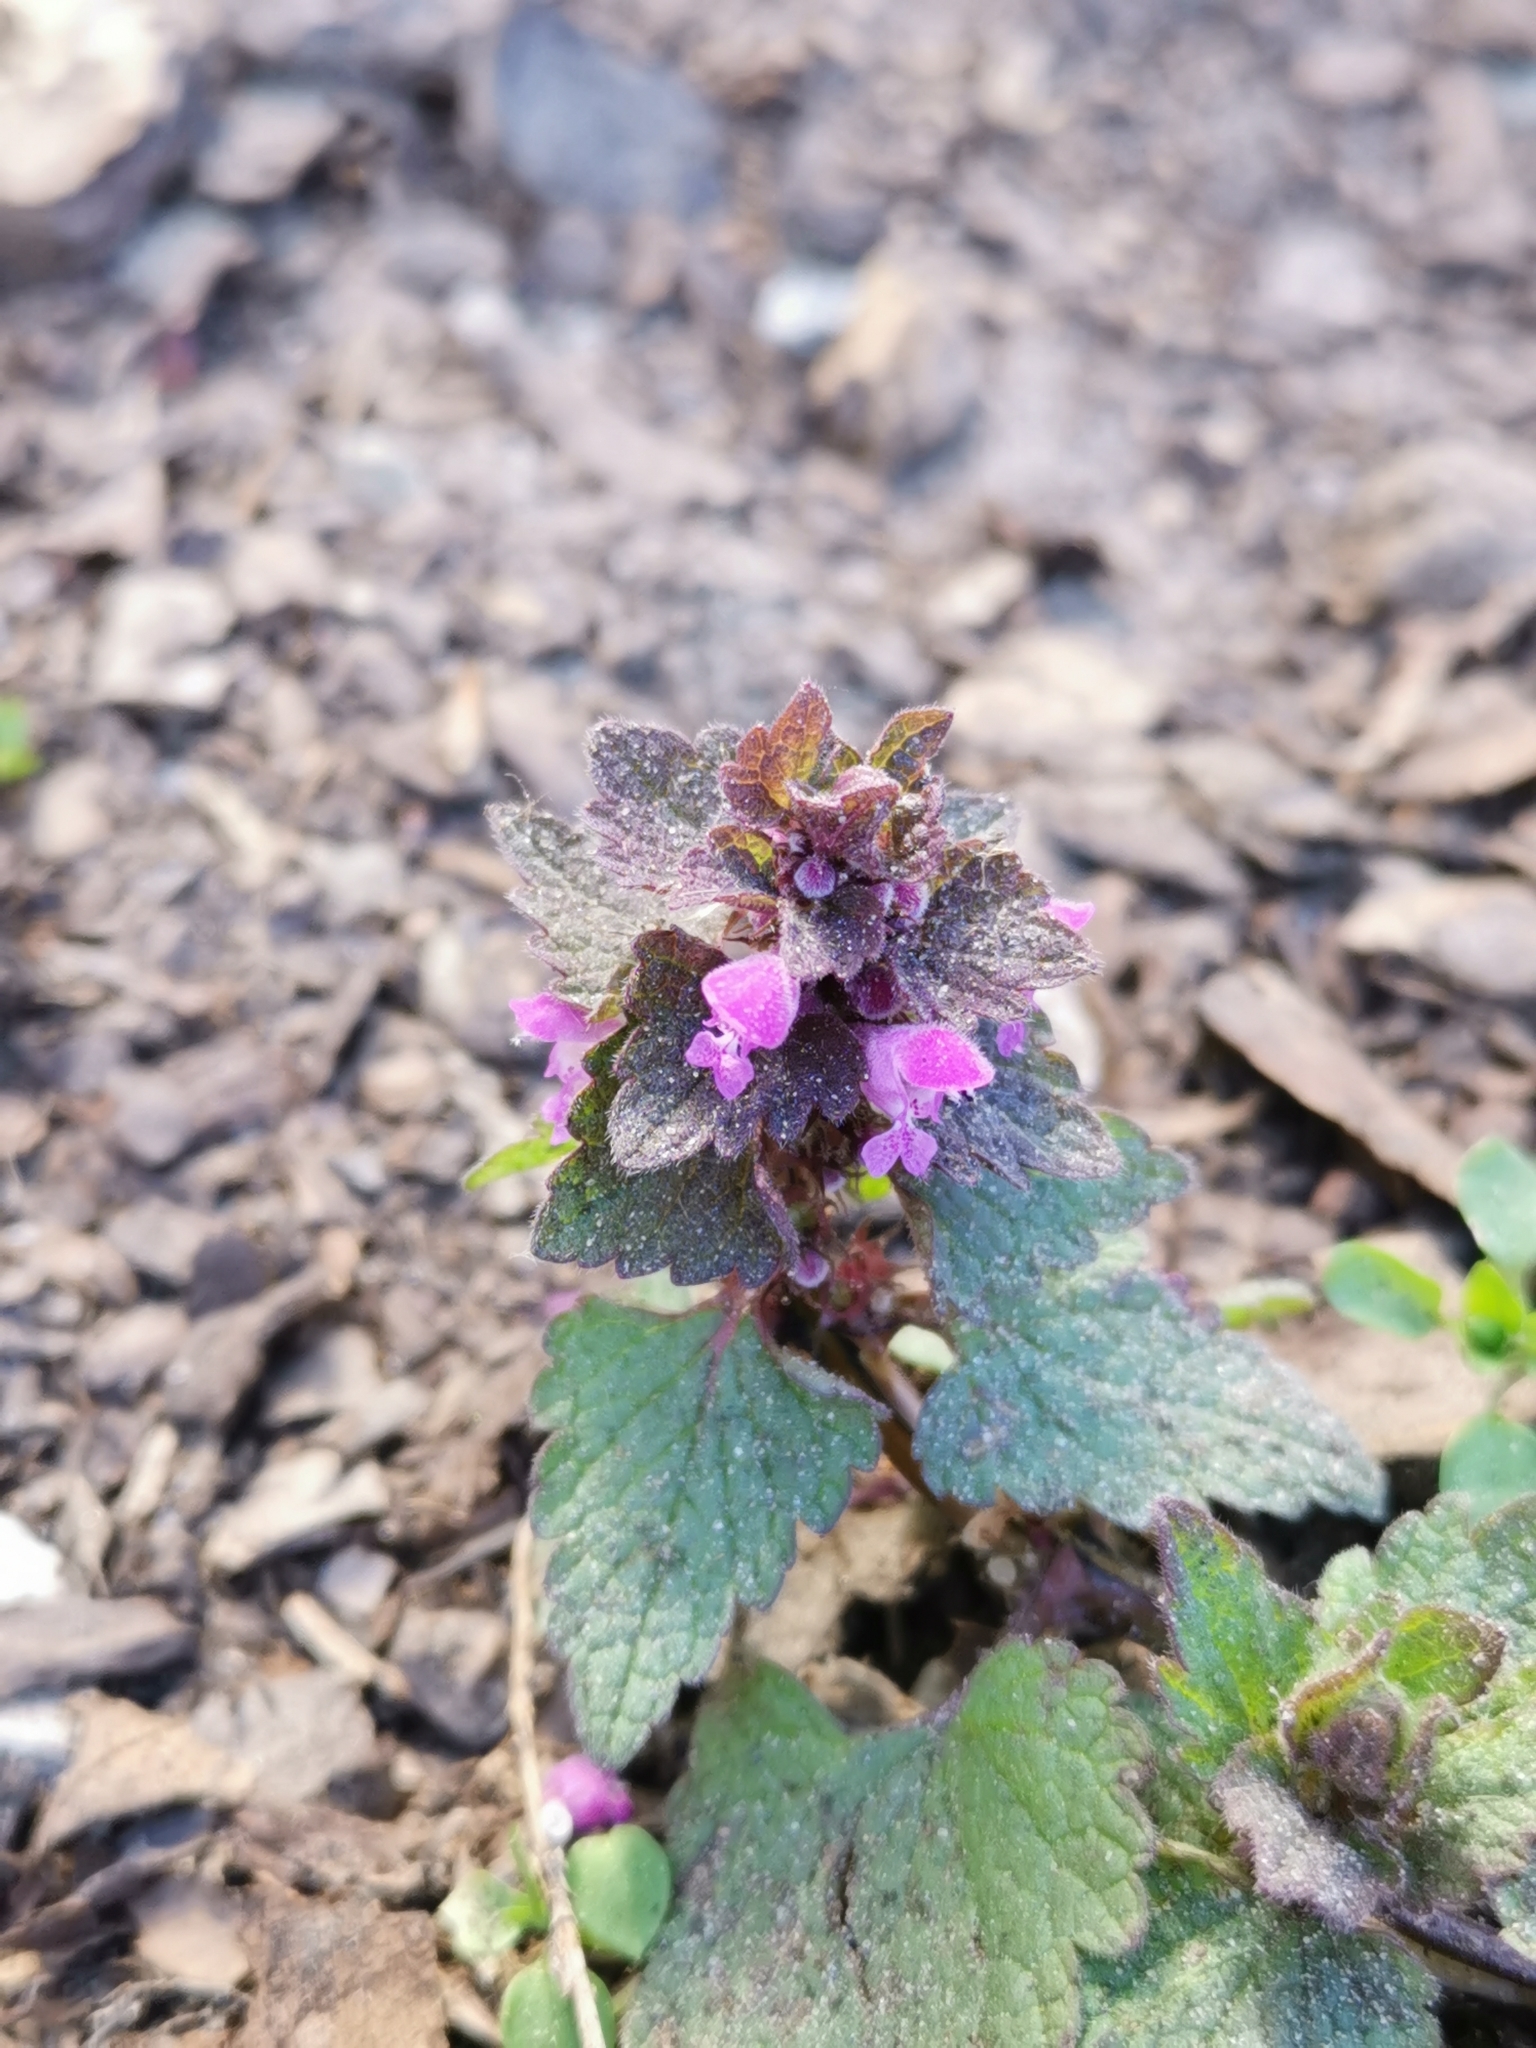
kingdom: Plantae
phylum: Tracheophyta
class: Magnoliopsida
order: Lamiales
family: Lamiaceae
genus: Lamium
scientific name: Lamium purpureum
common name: Red dead-nettle
